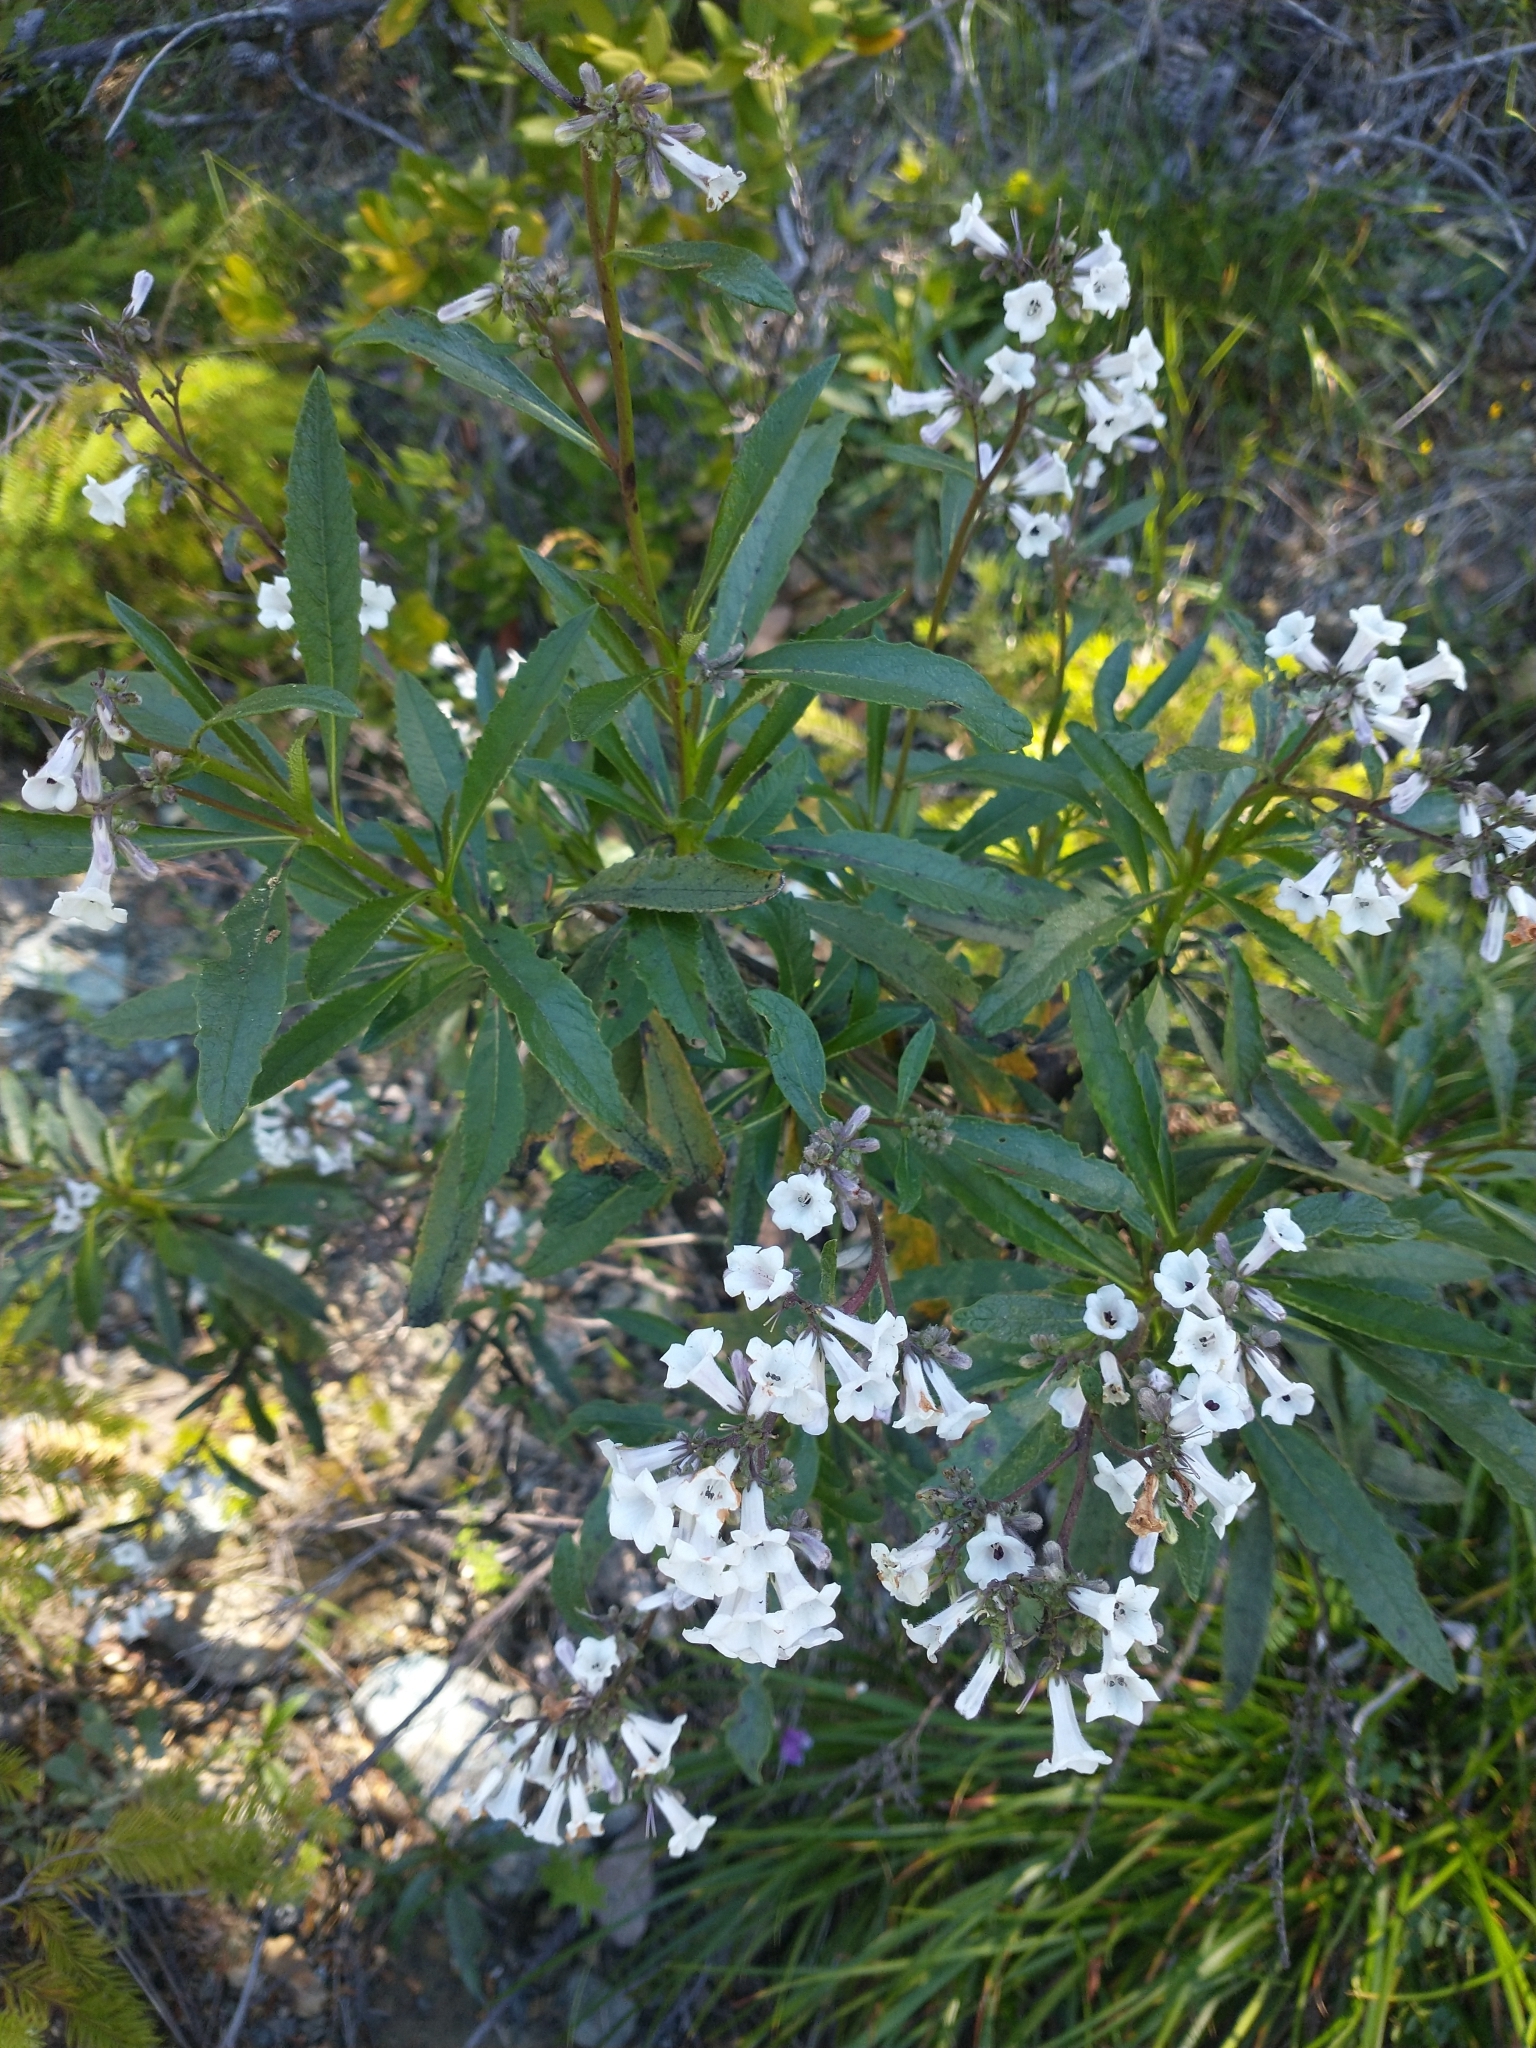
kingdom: Plantae
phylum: Tracheophyta
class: Magnoliopsida
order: Boraginales
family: Namaceae
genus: Eriodictyon
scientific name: Eriodictyon californicum
